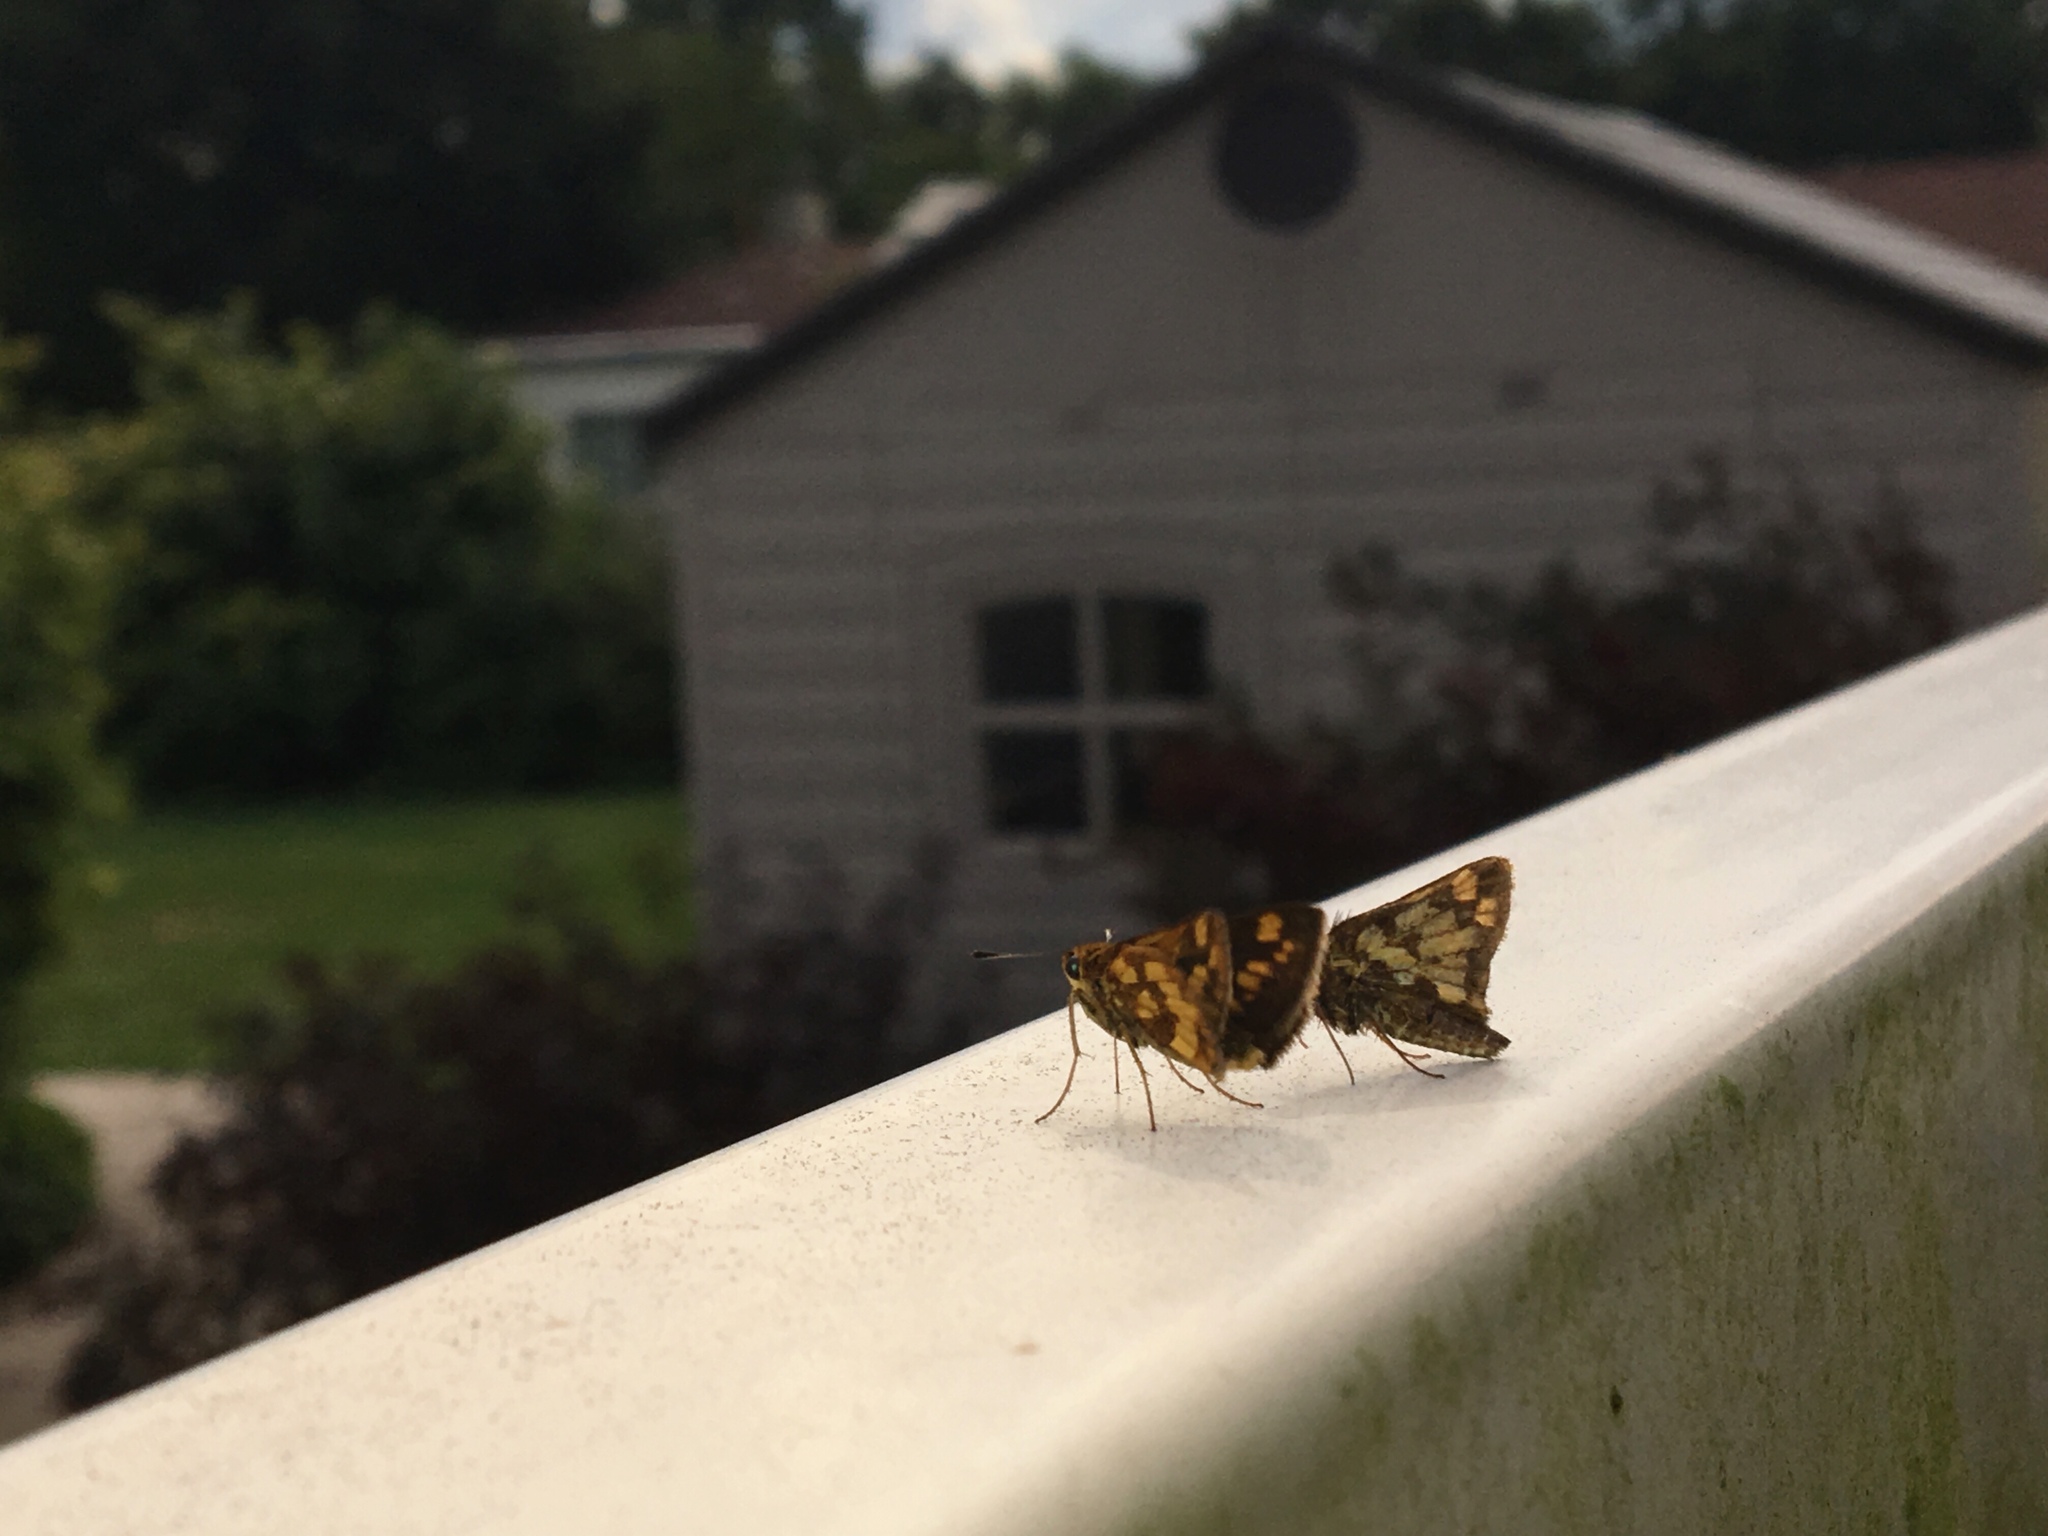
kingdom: Animalia
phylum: Arthropoda
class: Insecta
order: Lepidoptera
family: Hesperiidae
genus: Polites
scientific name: Polites coras
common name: Peck's skipper
